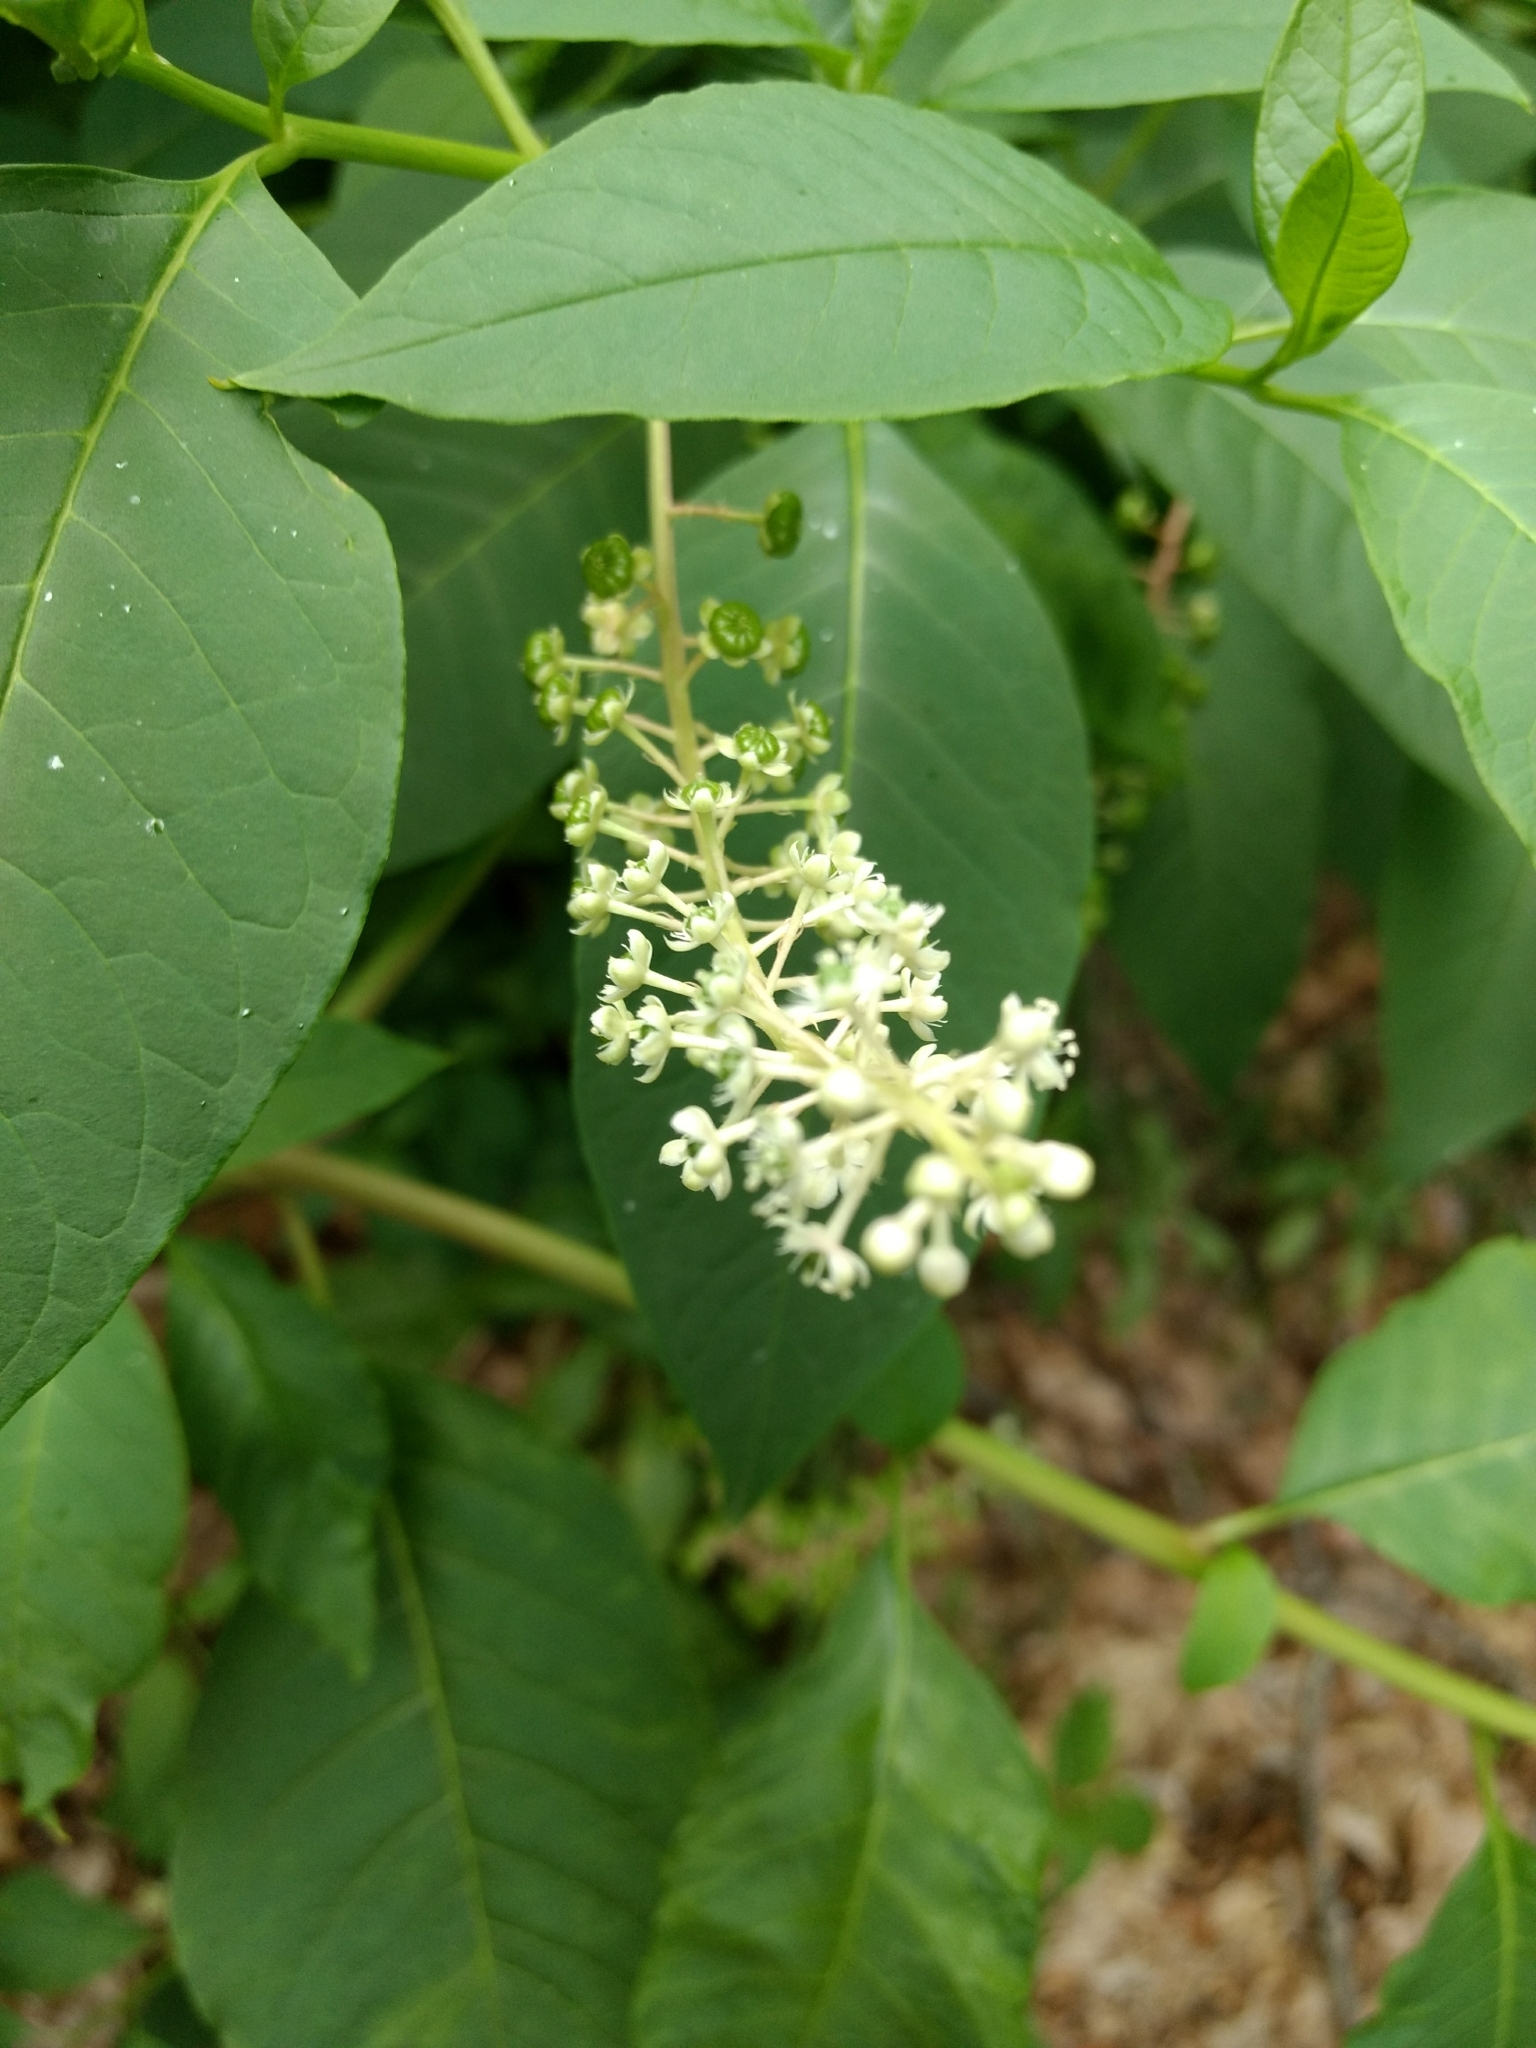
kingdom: Plantae
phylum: Tracheophyta
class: Magnoliopsida
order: Caryophyllales
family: Phytolaccaceae
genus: Phytolacca
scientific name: Phytolacca americana
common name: American pokeweed
